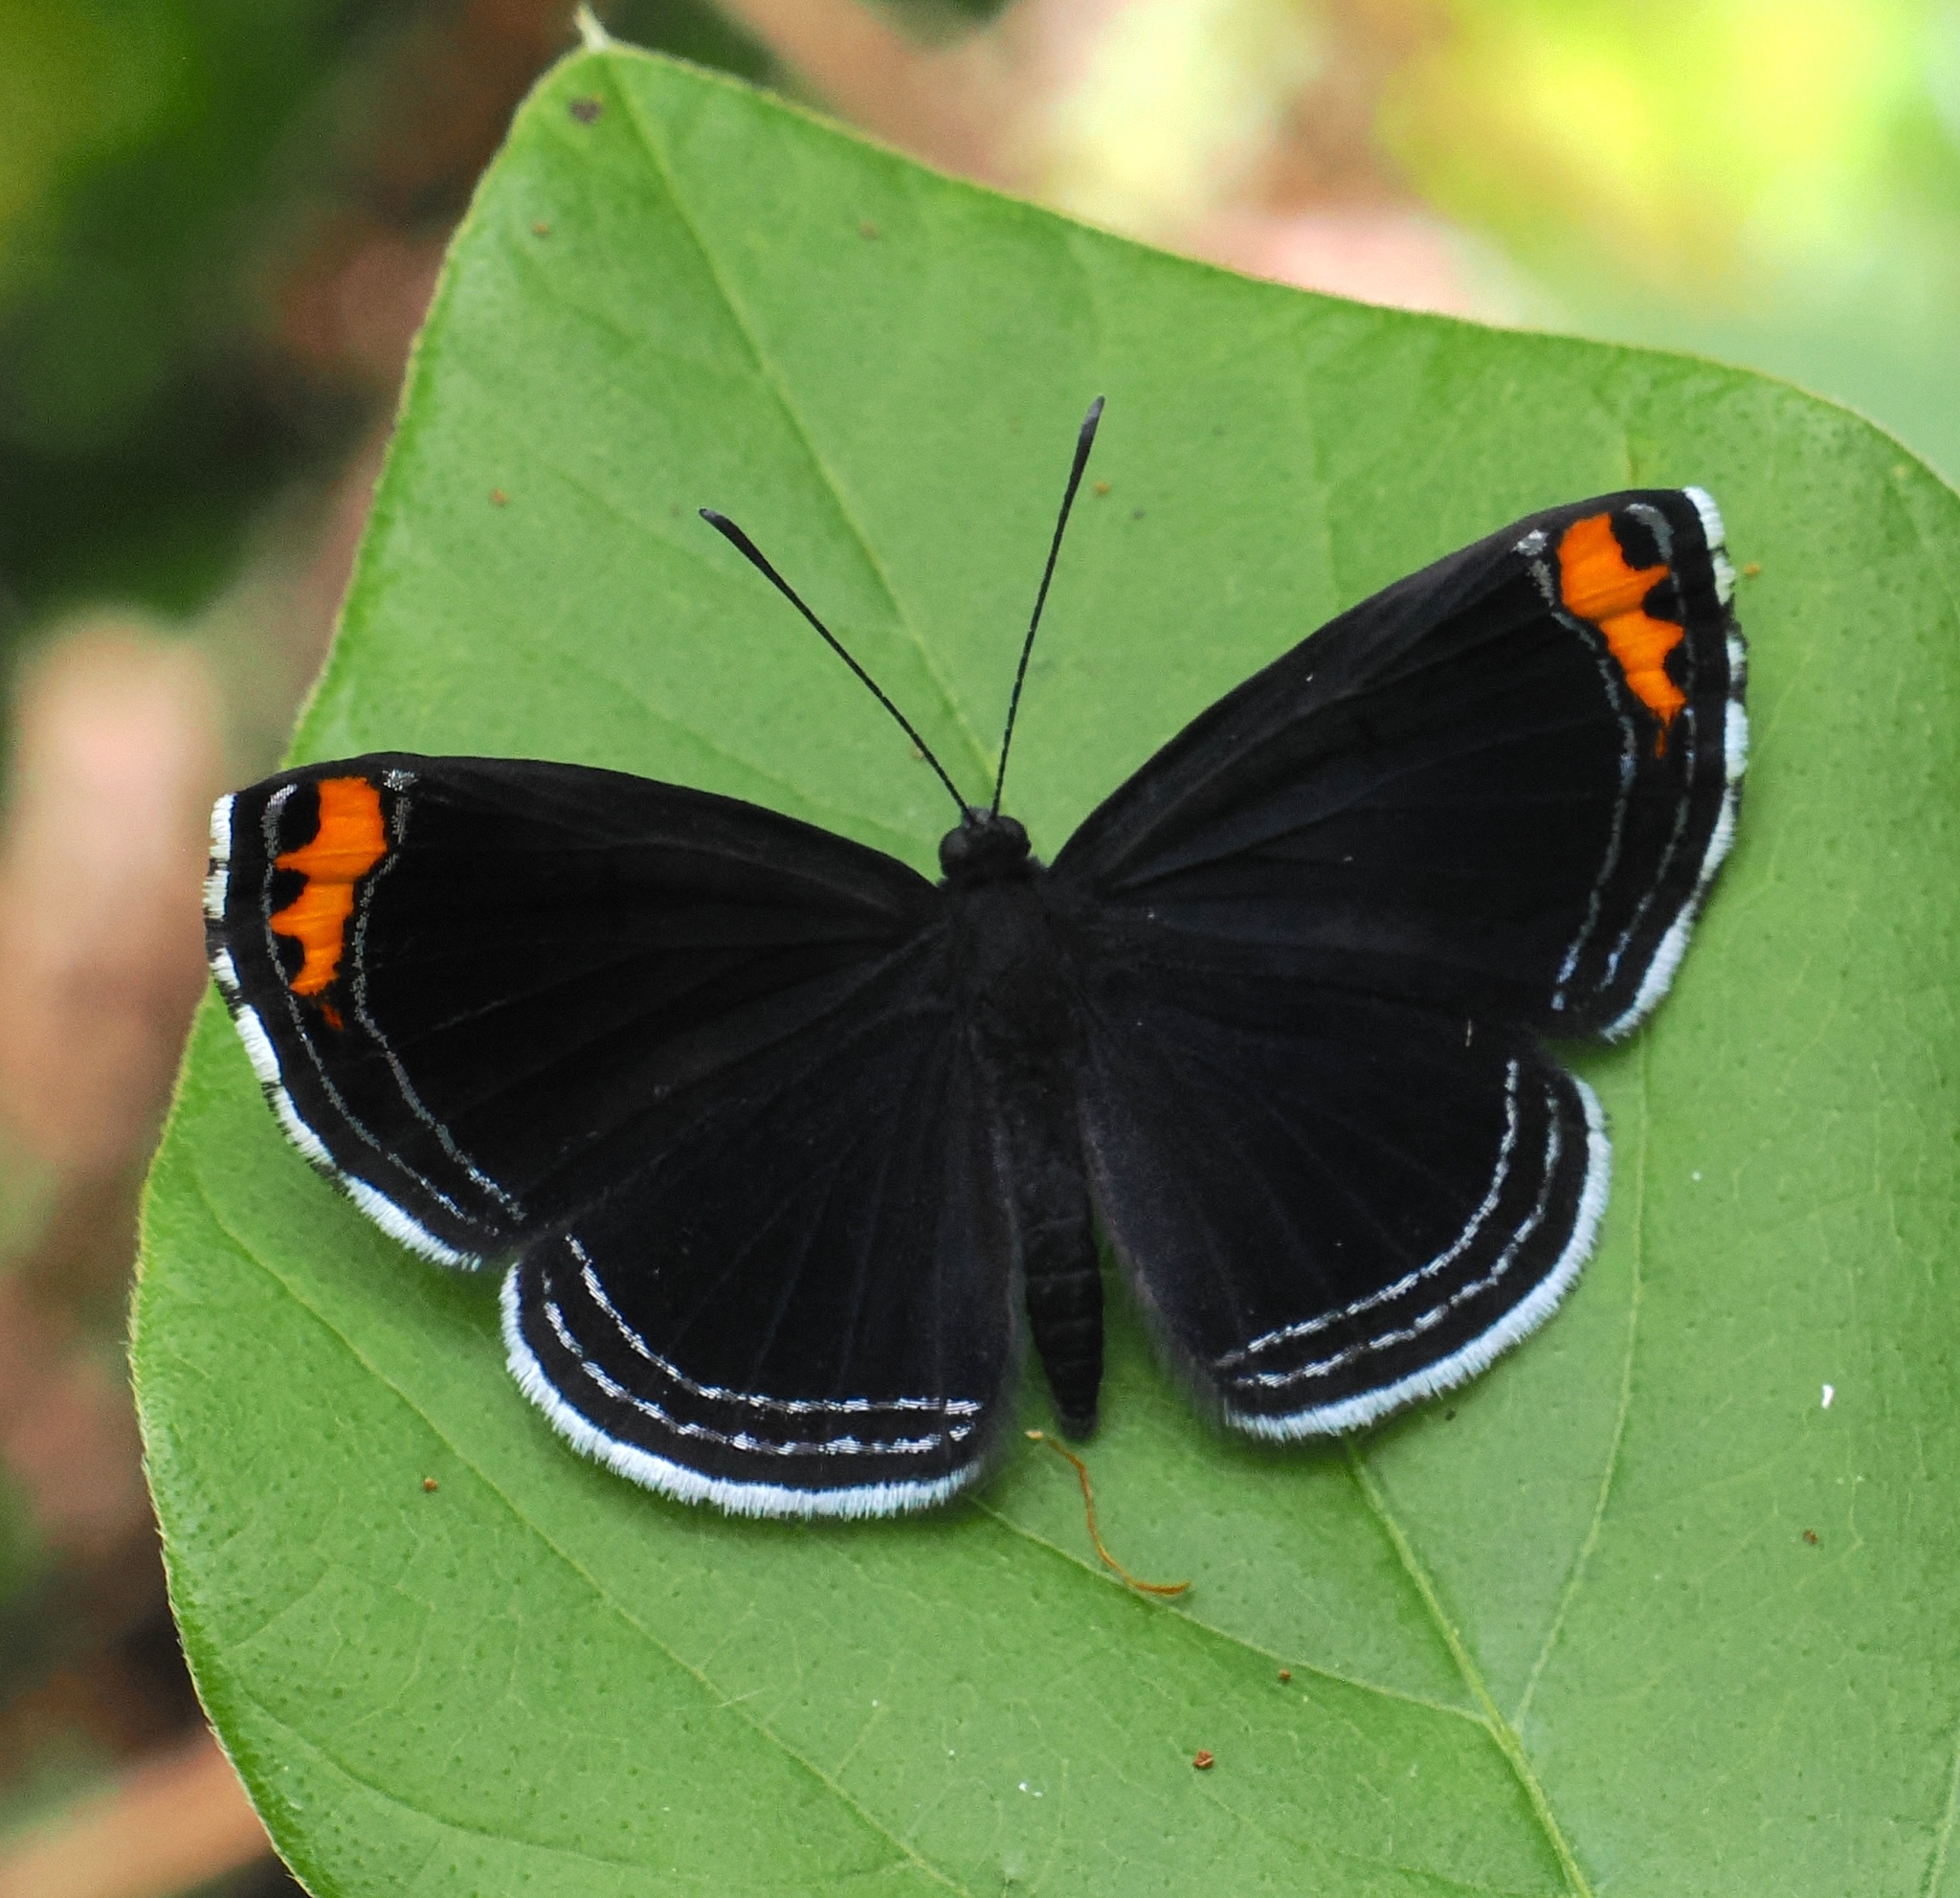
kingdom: Animalia
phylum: Arthropoda
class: Insecta
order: Lepidoptera
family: Riodinidae
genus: Nelone
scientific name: Nelone cadmeis
